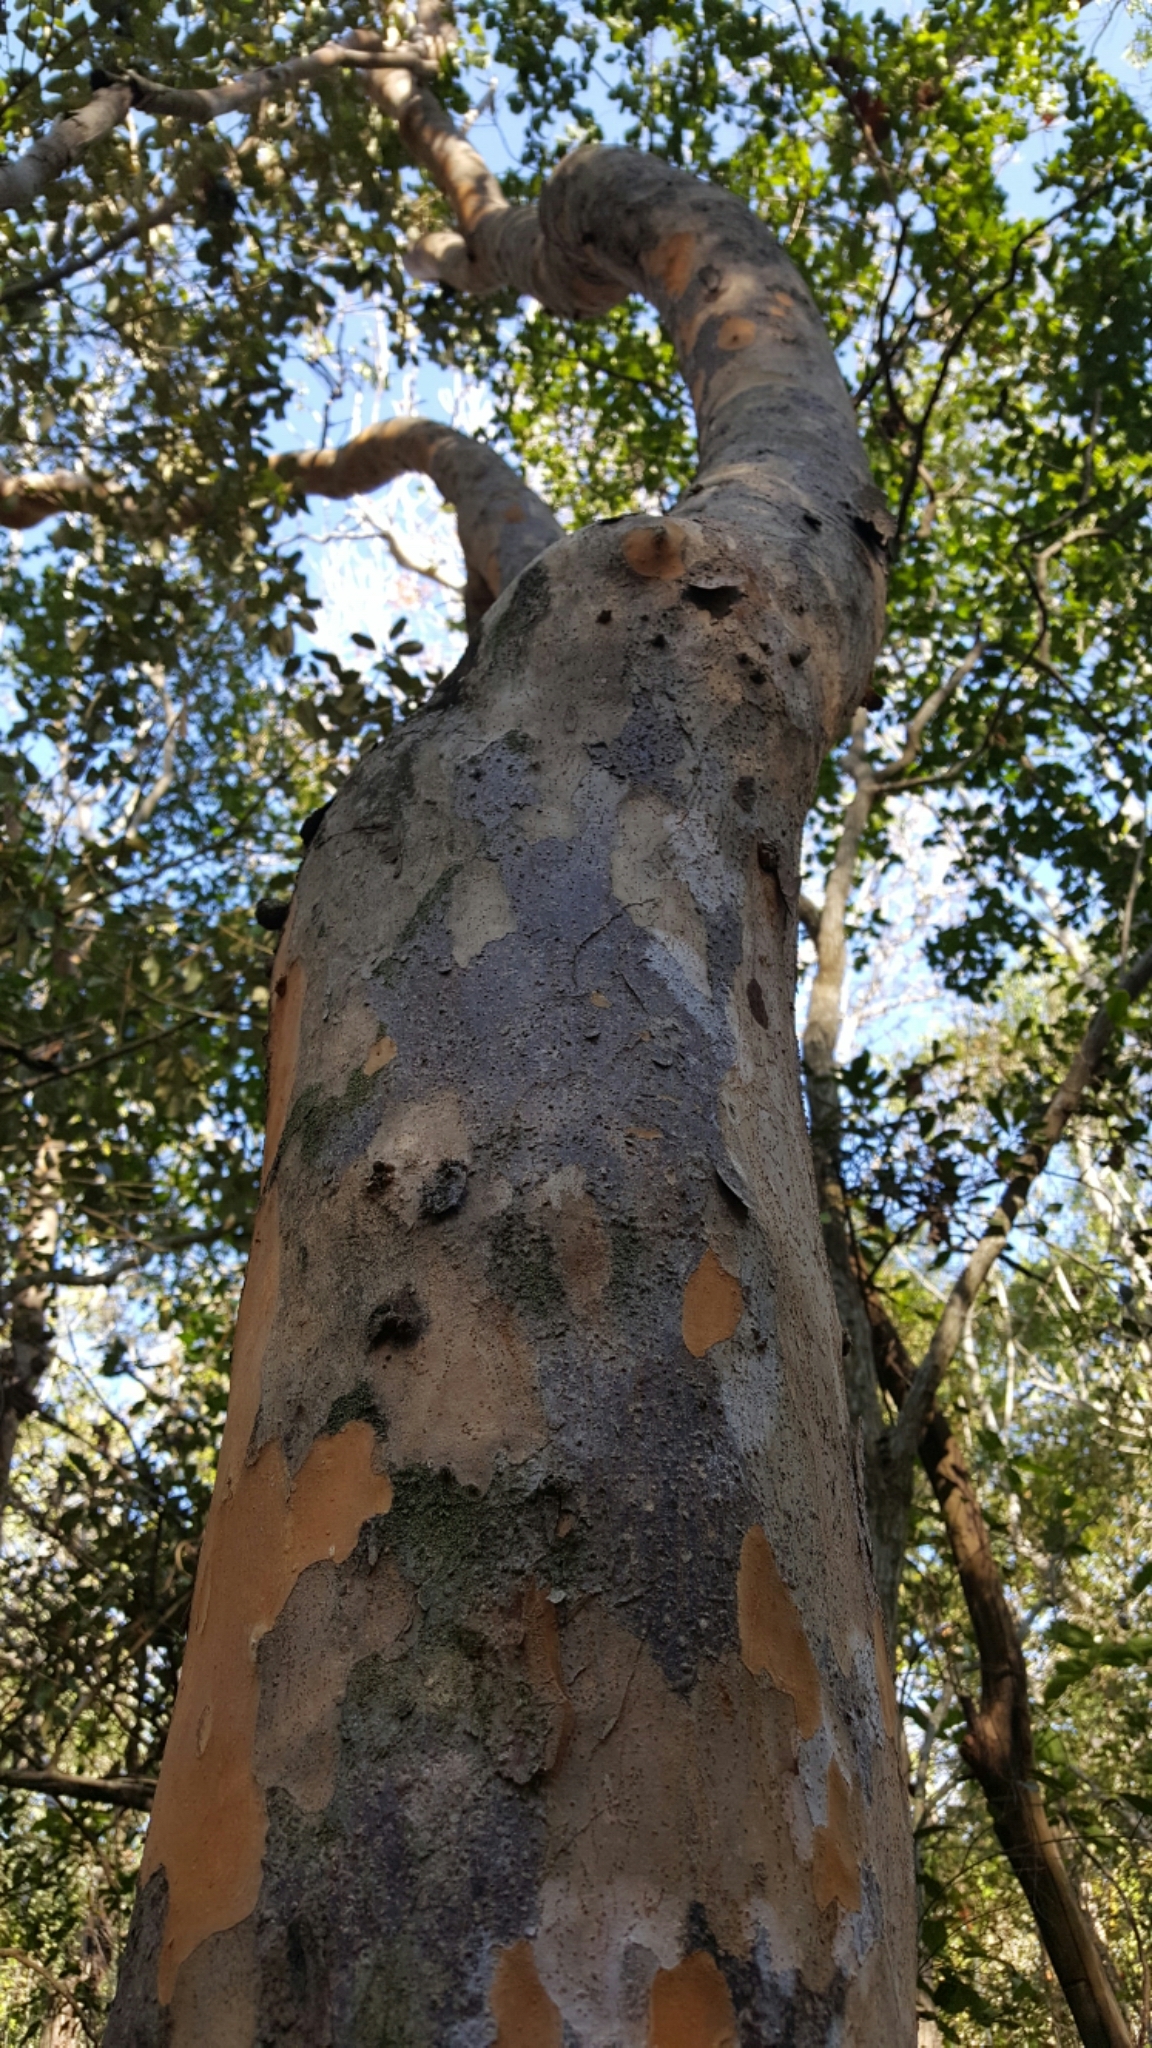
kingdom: Plantae
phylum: Tracheophyta
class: Magnoliopsida
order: Sapindales
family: Anacardiaceae
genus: Metopium
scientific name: Metopium toxiferum
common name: Florida poisontree
